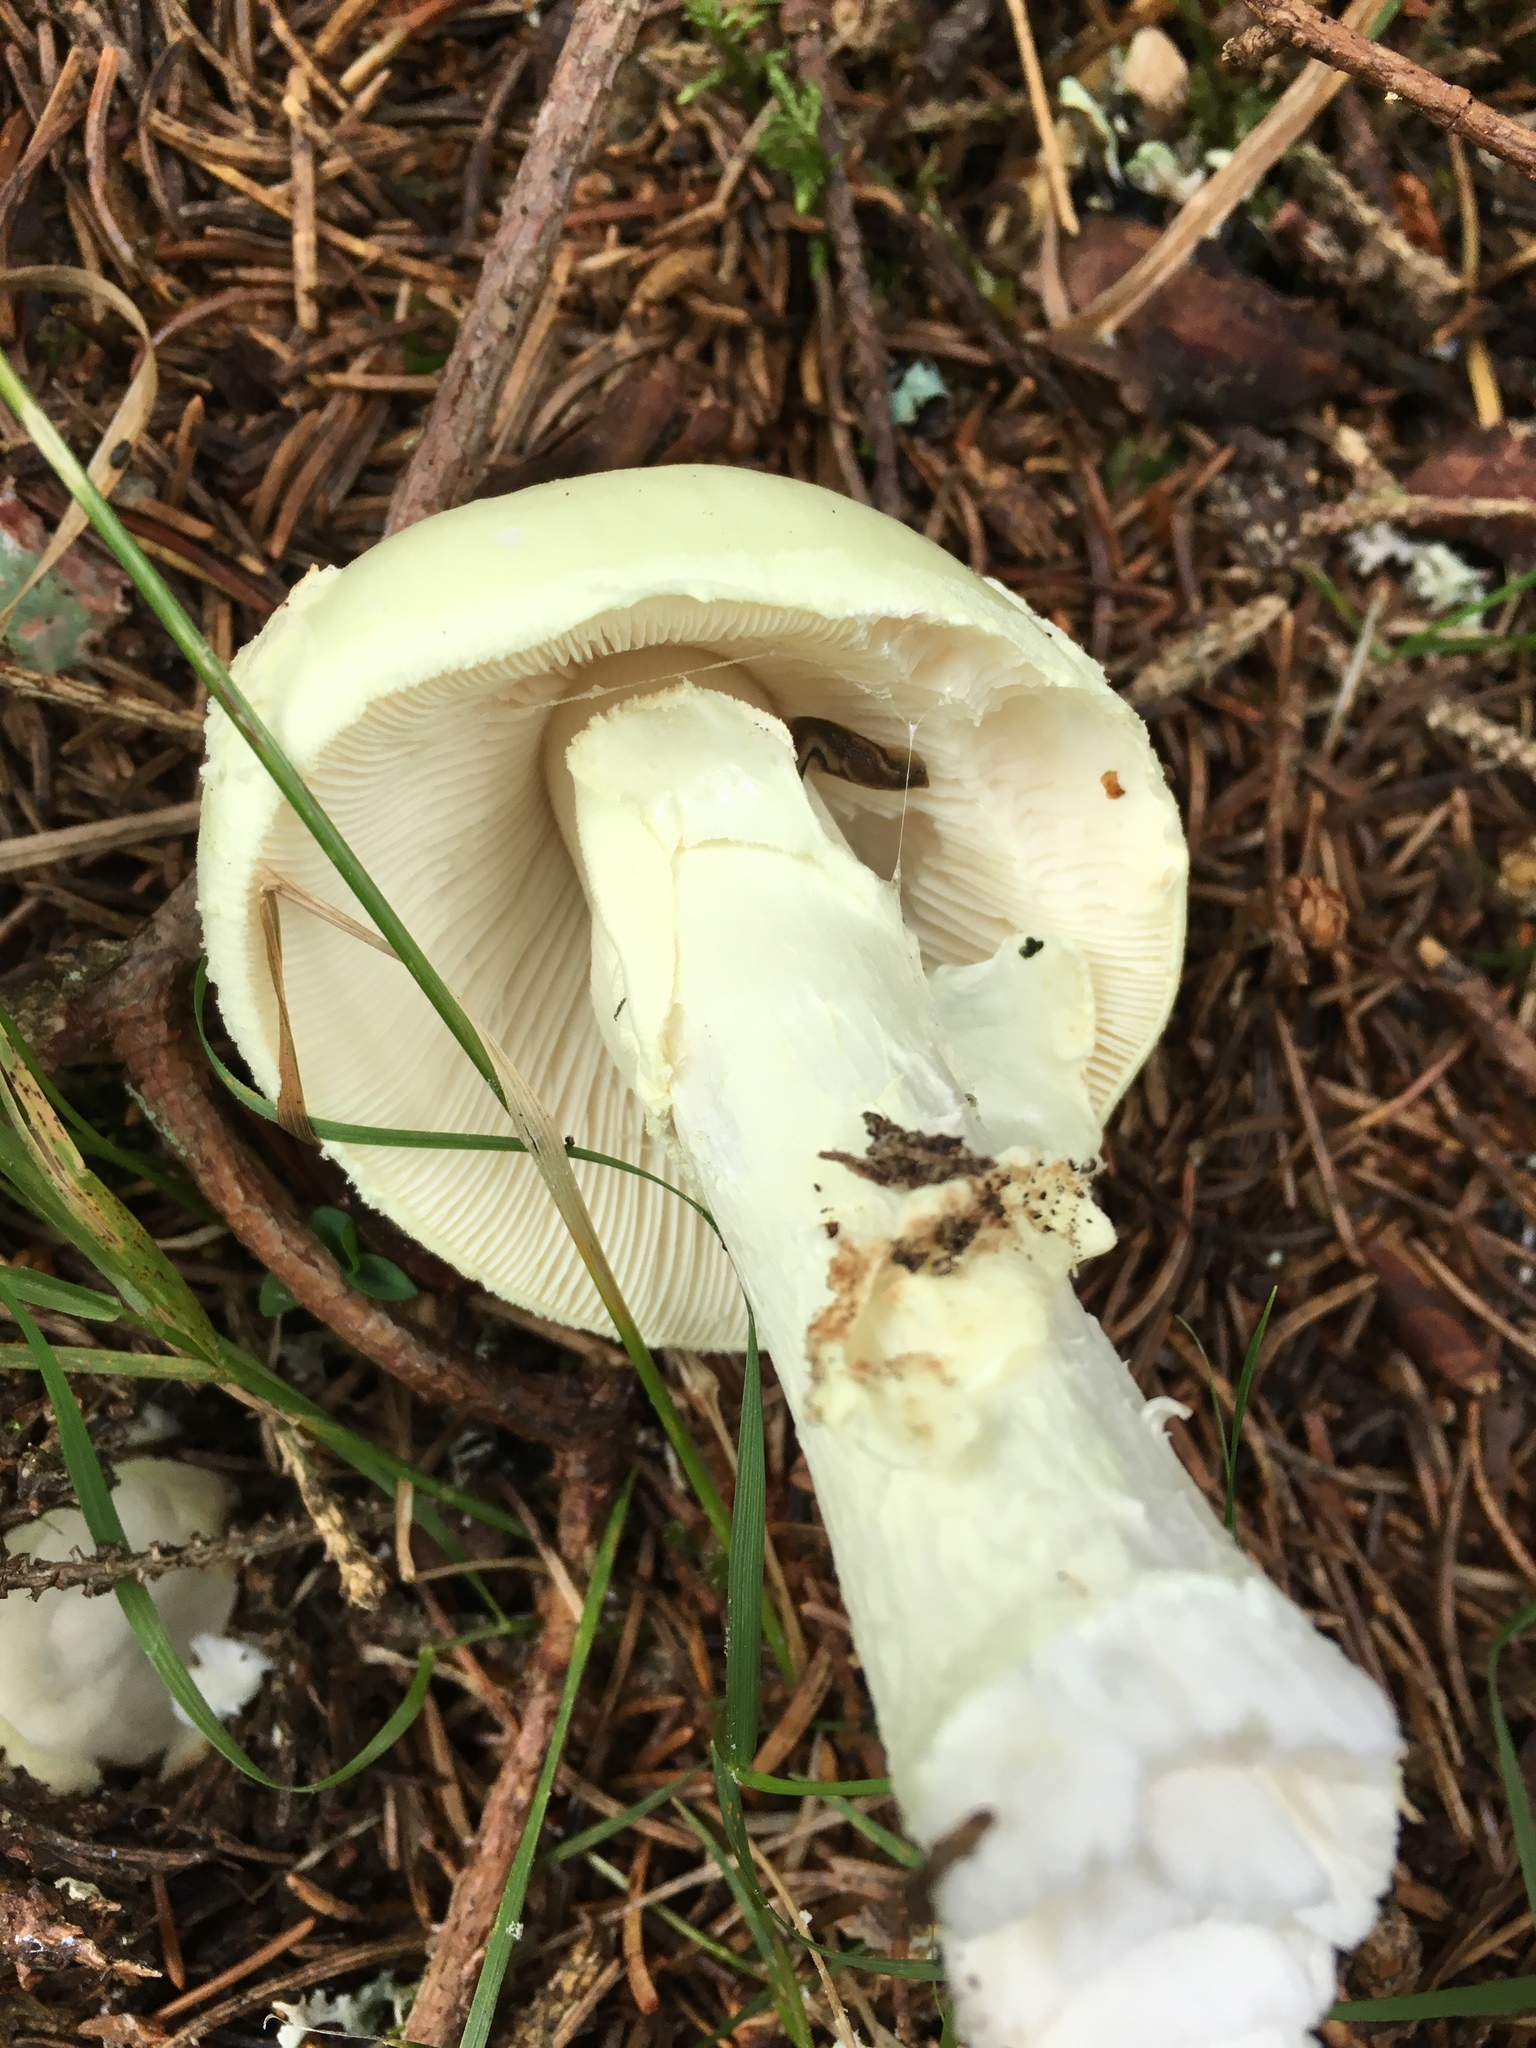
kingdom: Fungi
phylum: Basidiomycota
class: Agaricomycetes
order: Agaricales
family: Amanitaceae
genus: Amanita
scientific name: Amanita citrina
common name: False death-cap
